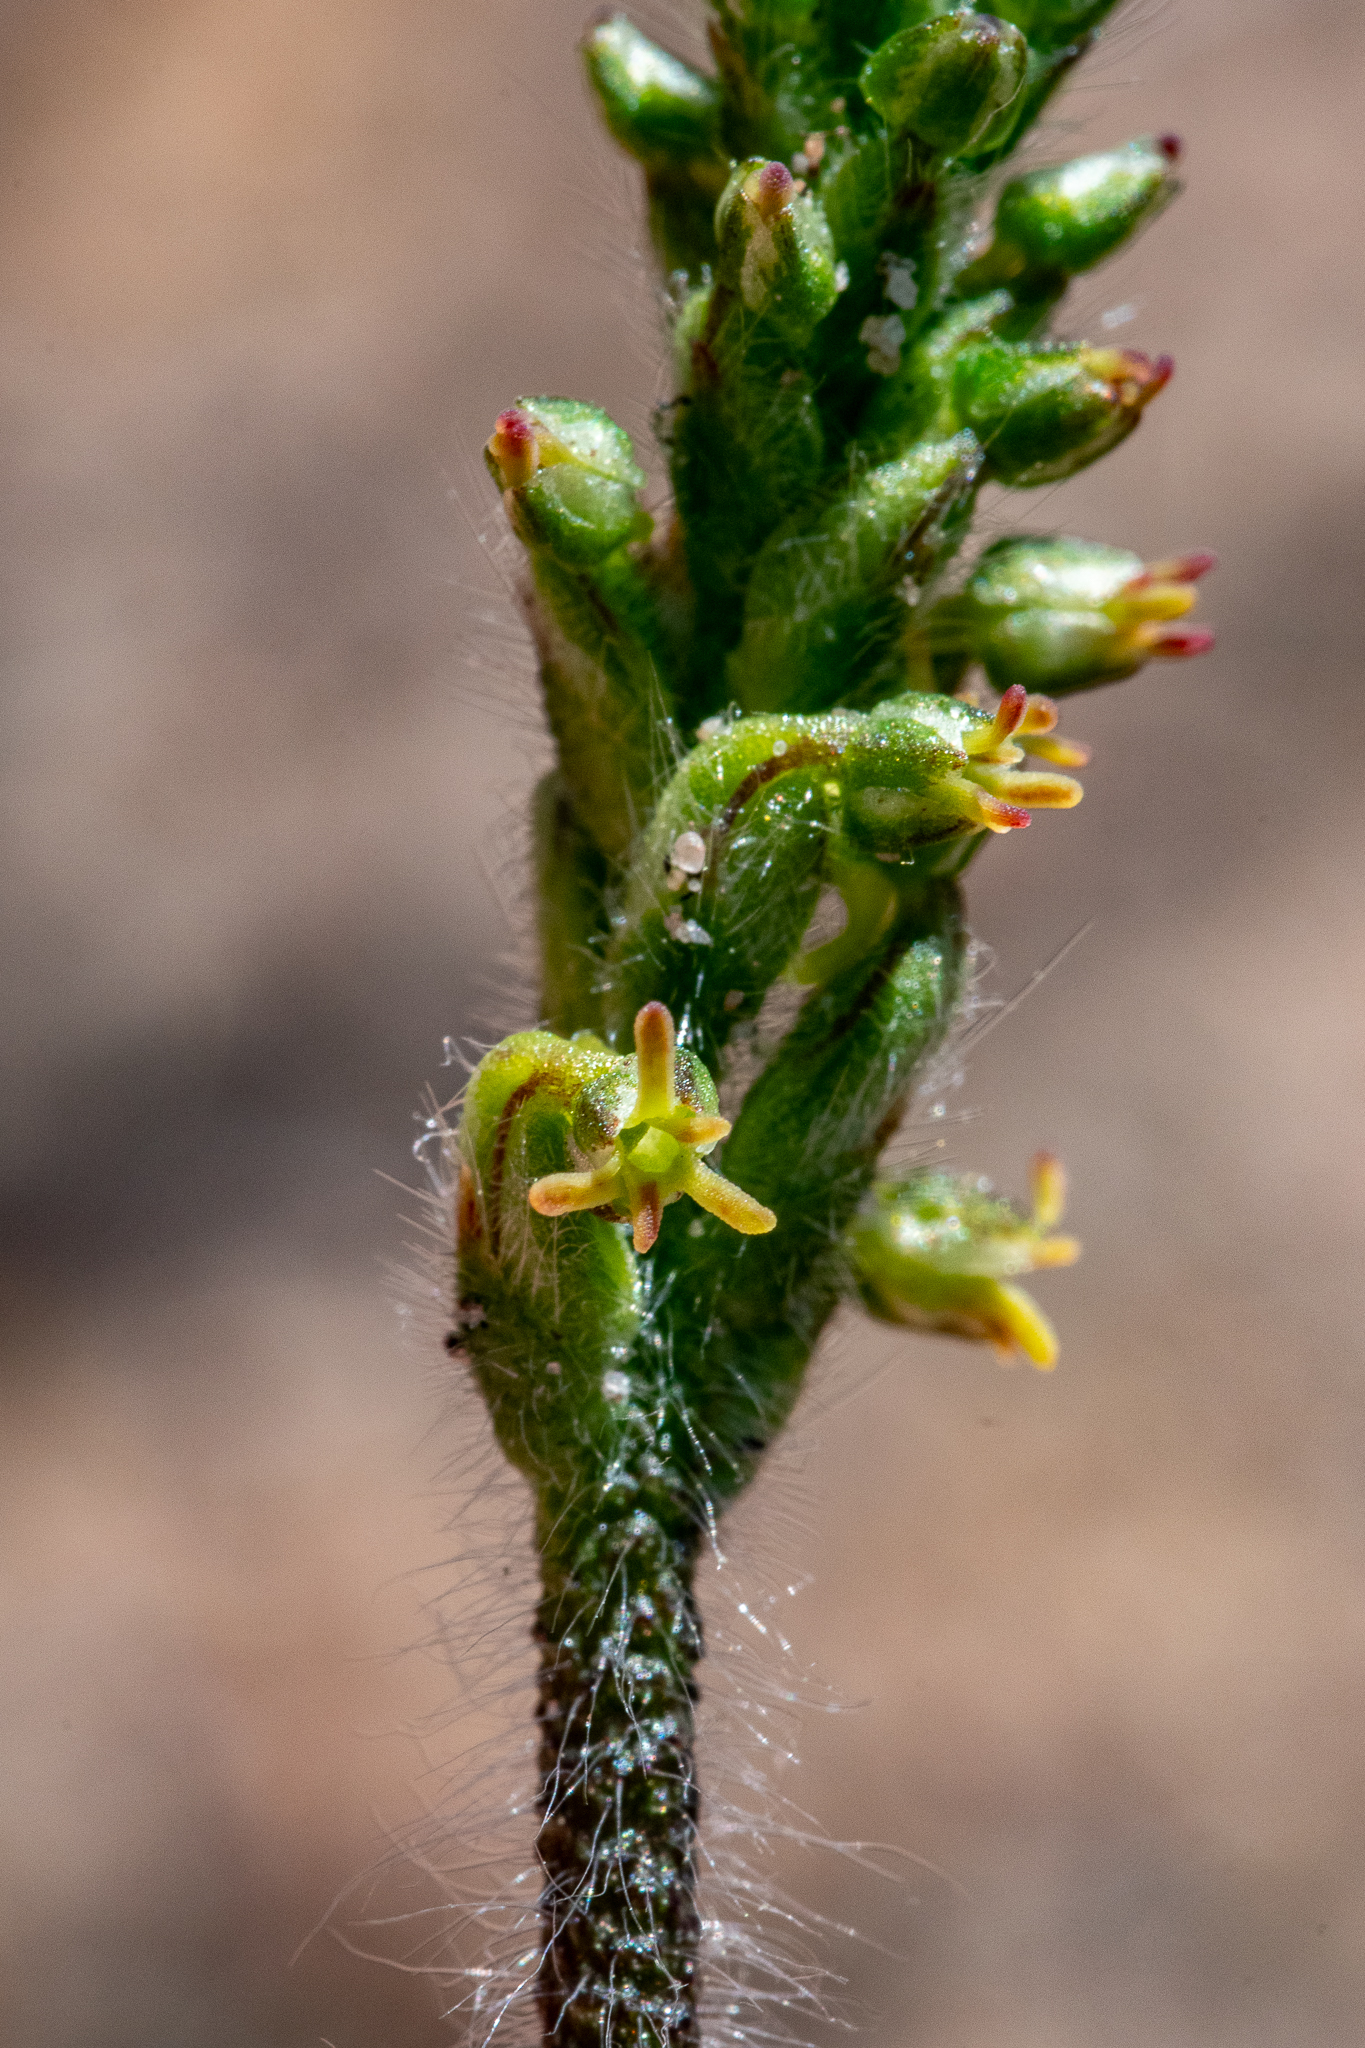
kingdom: Plantae
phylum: Tracheophyta
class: Liliopsida
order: Asparagales
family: Orchidaceae
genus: Holothrix
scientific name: Holothrix villosa
